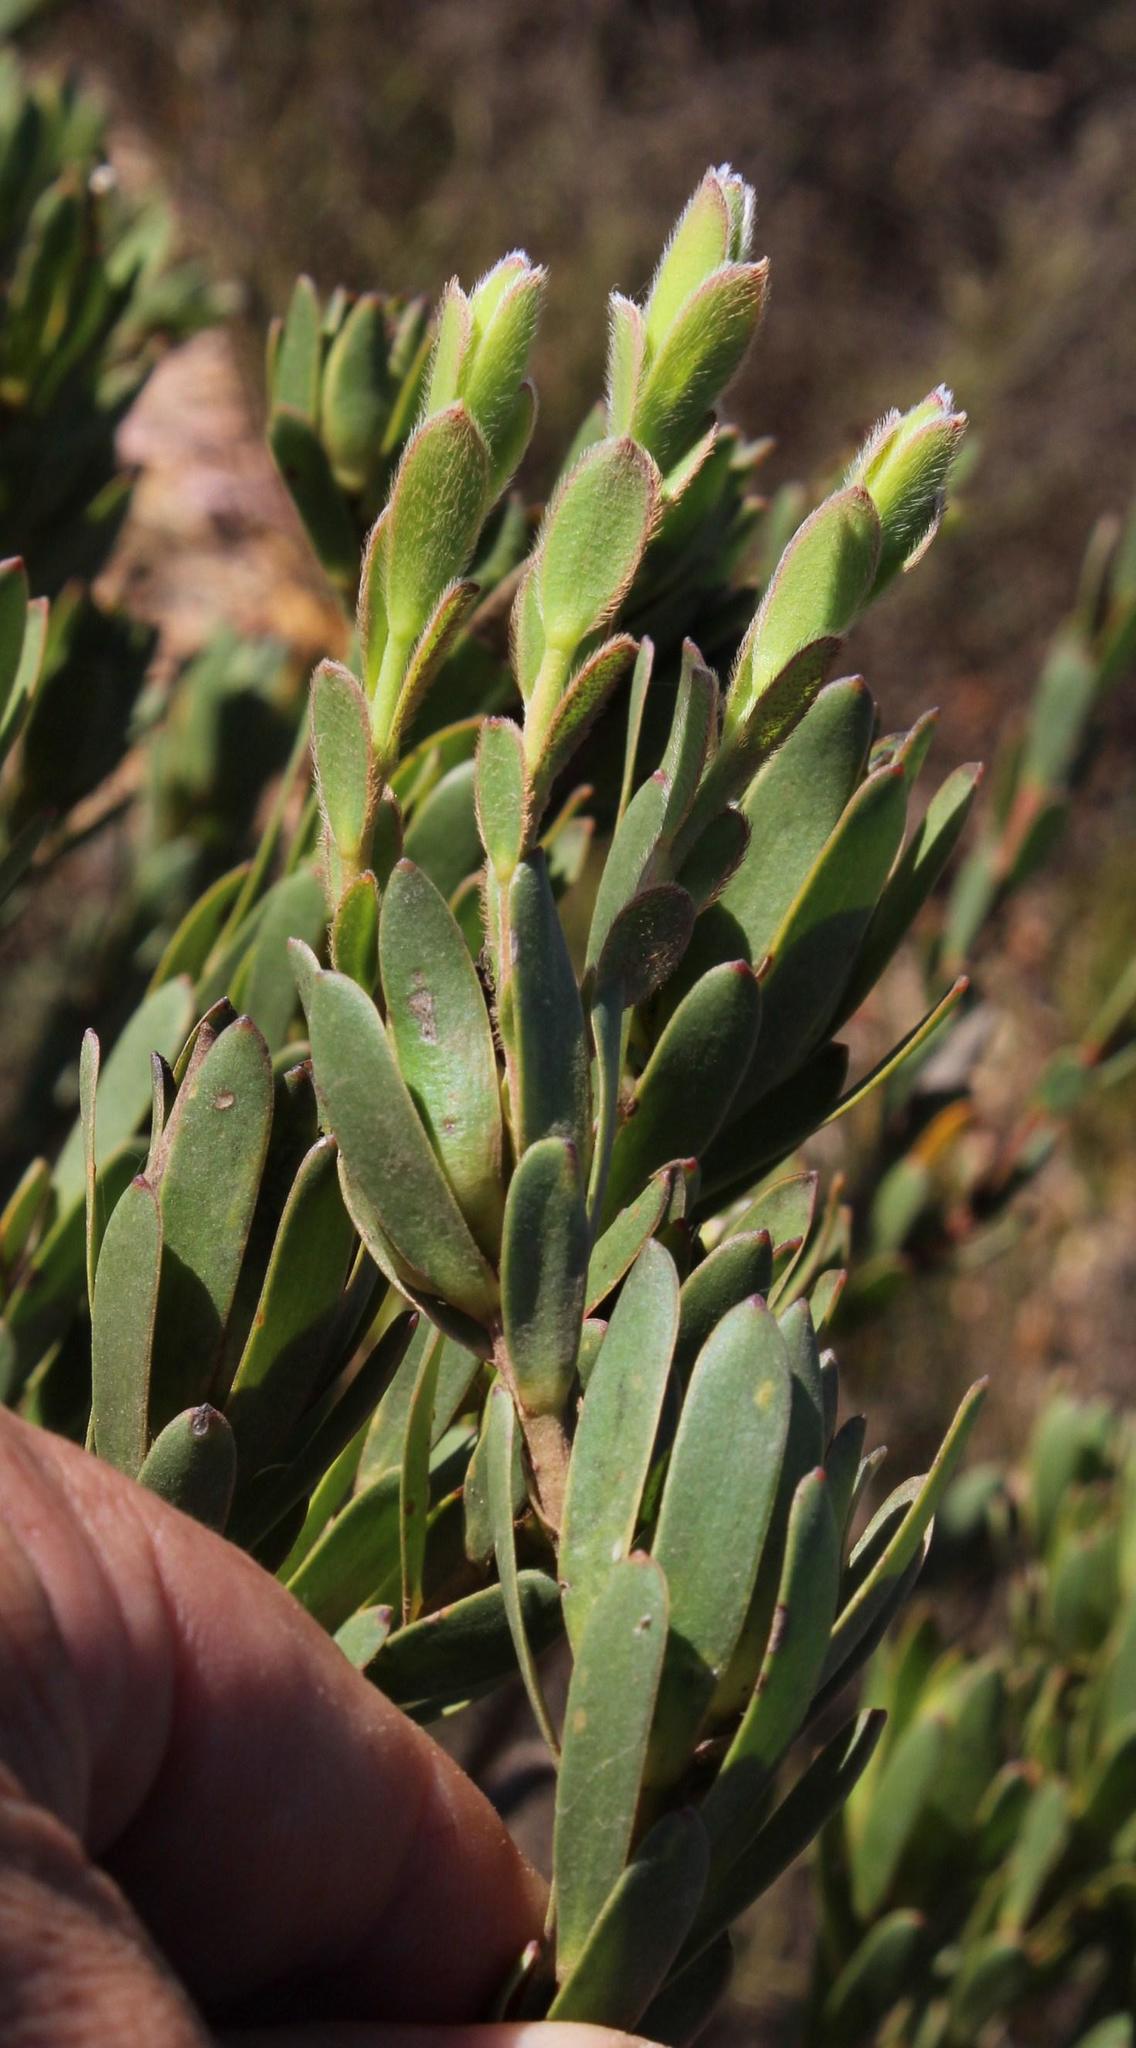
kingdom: Plantae
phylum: Tracheophyta
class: Magnoliopsida
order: Proteales
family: Proteaceae
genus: Leucadendron
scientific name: Leucadendron stelligerum
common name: Agulhas conebush
